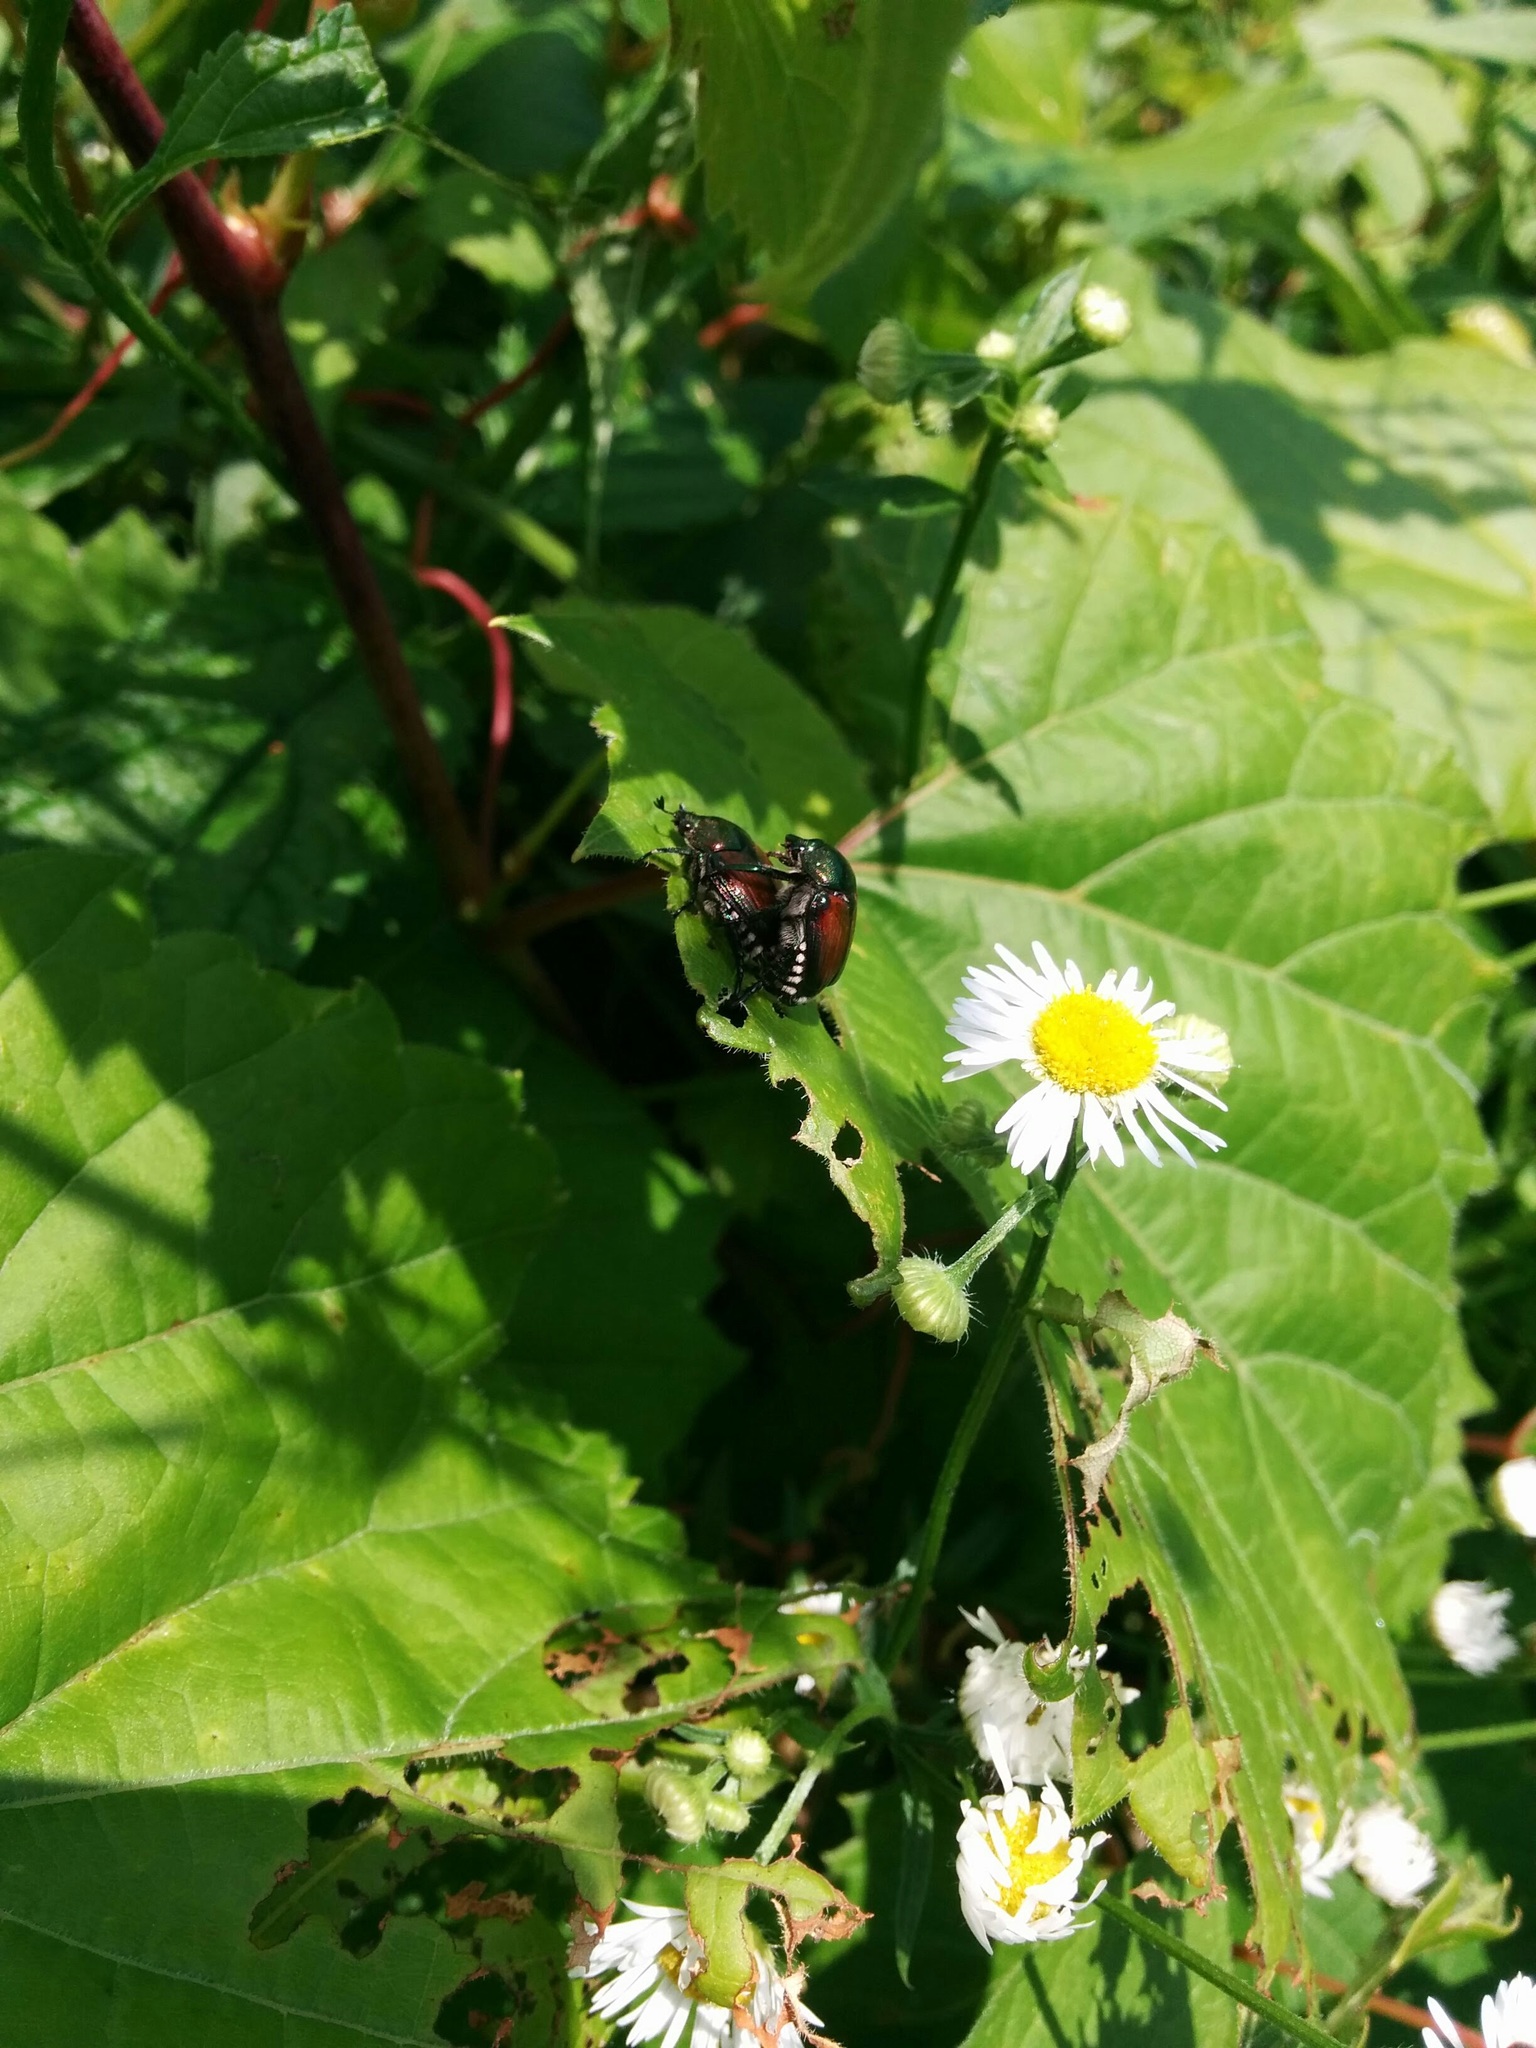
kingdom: Animalia
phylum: Arthropoda
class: Insecta
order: Coleoptera
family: Scarabaeidae
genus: Popillia
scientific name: Popillia japonica
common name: Japanese beetle
